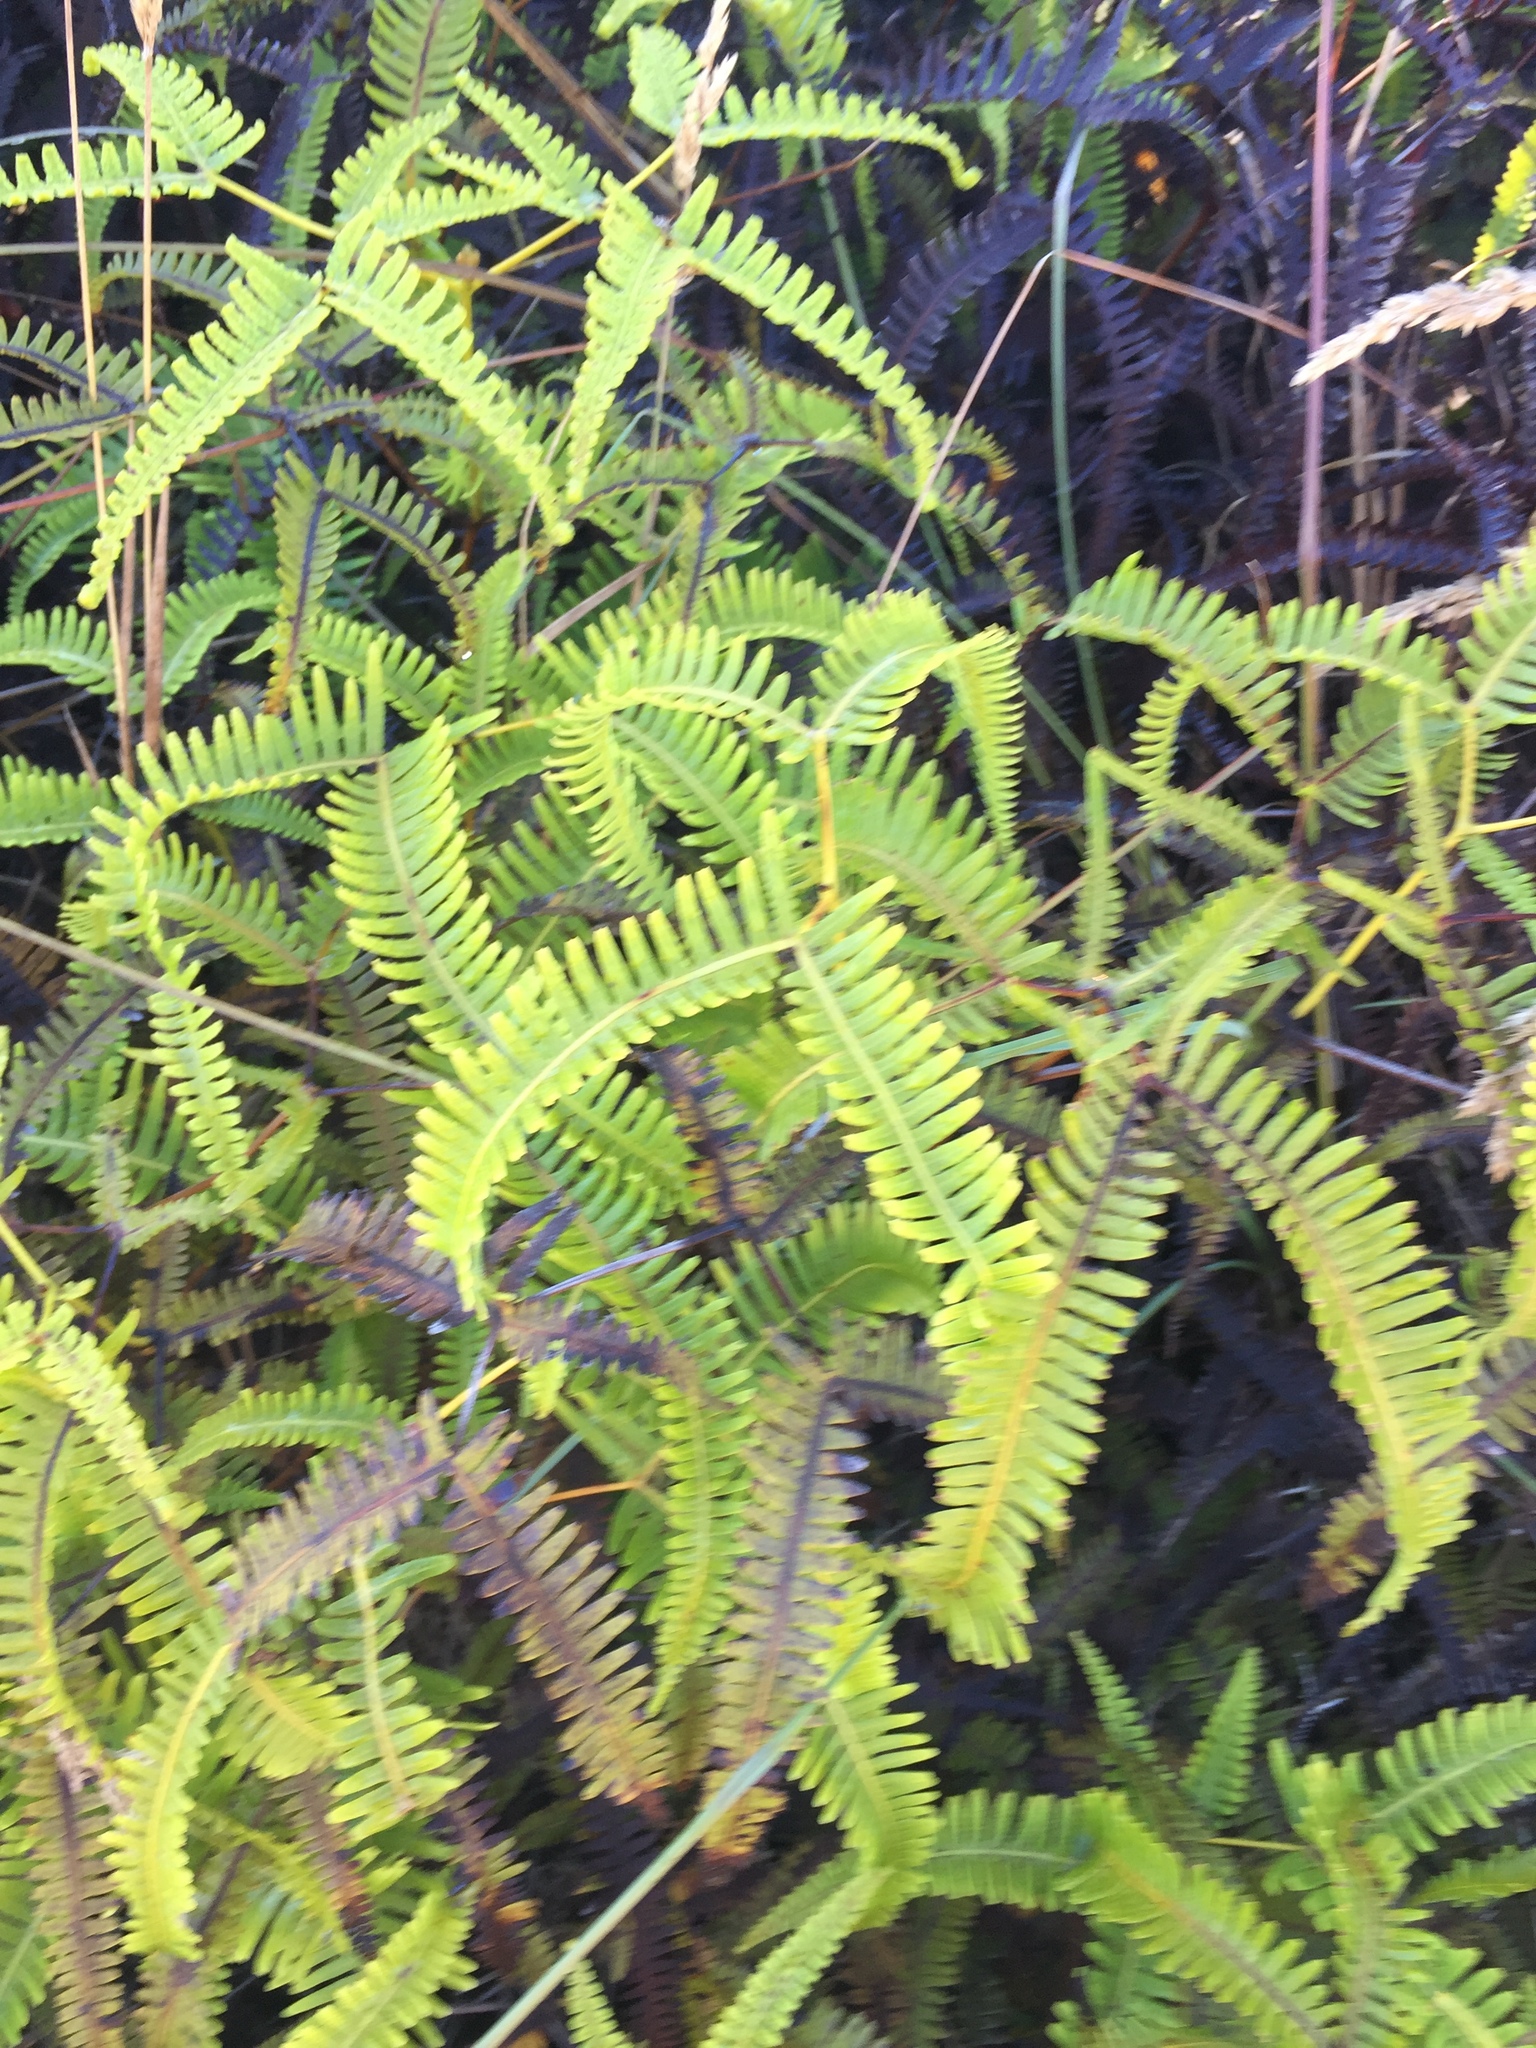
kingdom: Plantae
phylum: Tracheophyta
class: Polypodiopsida
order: Gleicheniales
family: Gleicheniaceae
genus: Dicranopteris
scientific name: Dicranopteris linearis
